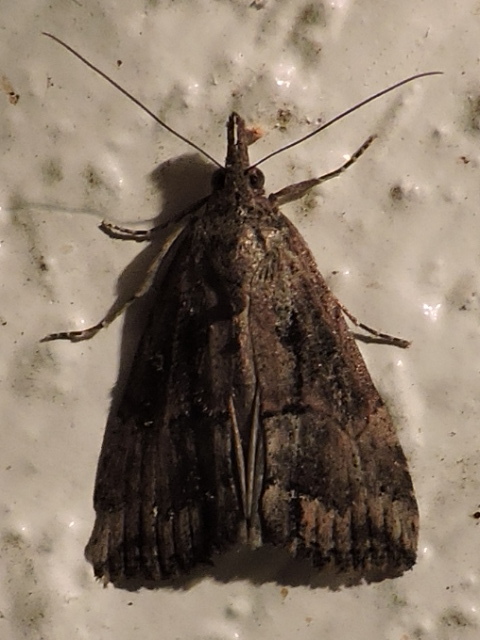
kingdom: Animalia
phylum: Arthropoda
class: Insecta
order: Lepidoptera
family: Erebidae
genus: Hypena
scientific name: Hypena scabra
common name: Green cloverworm
